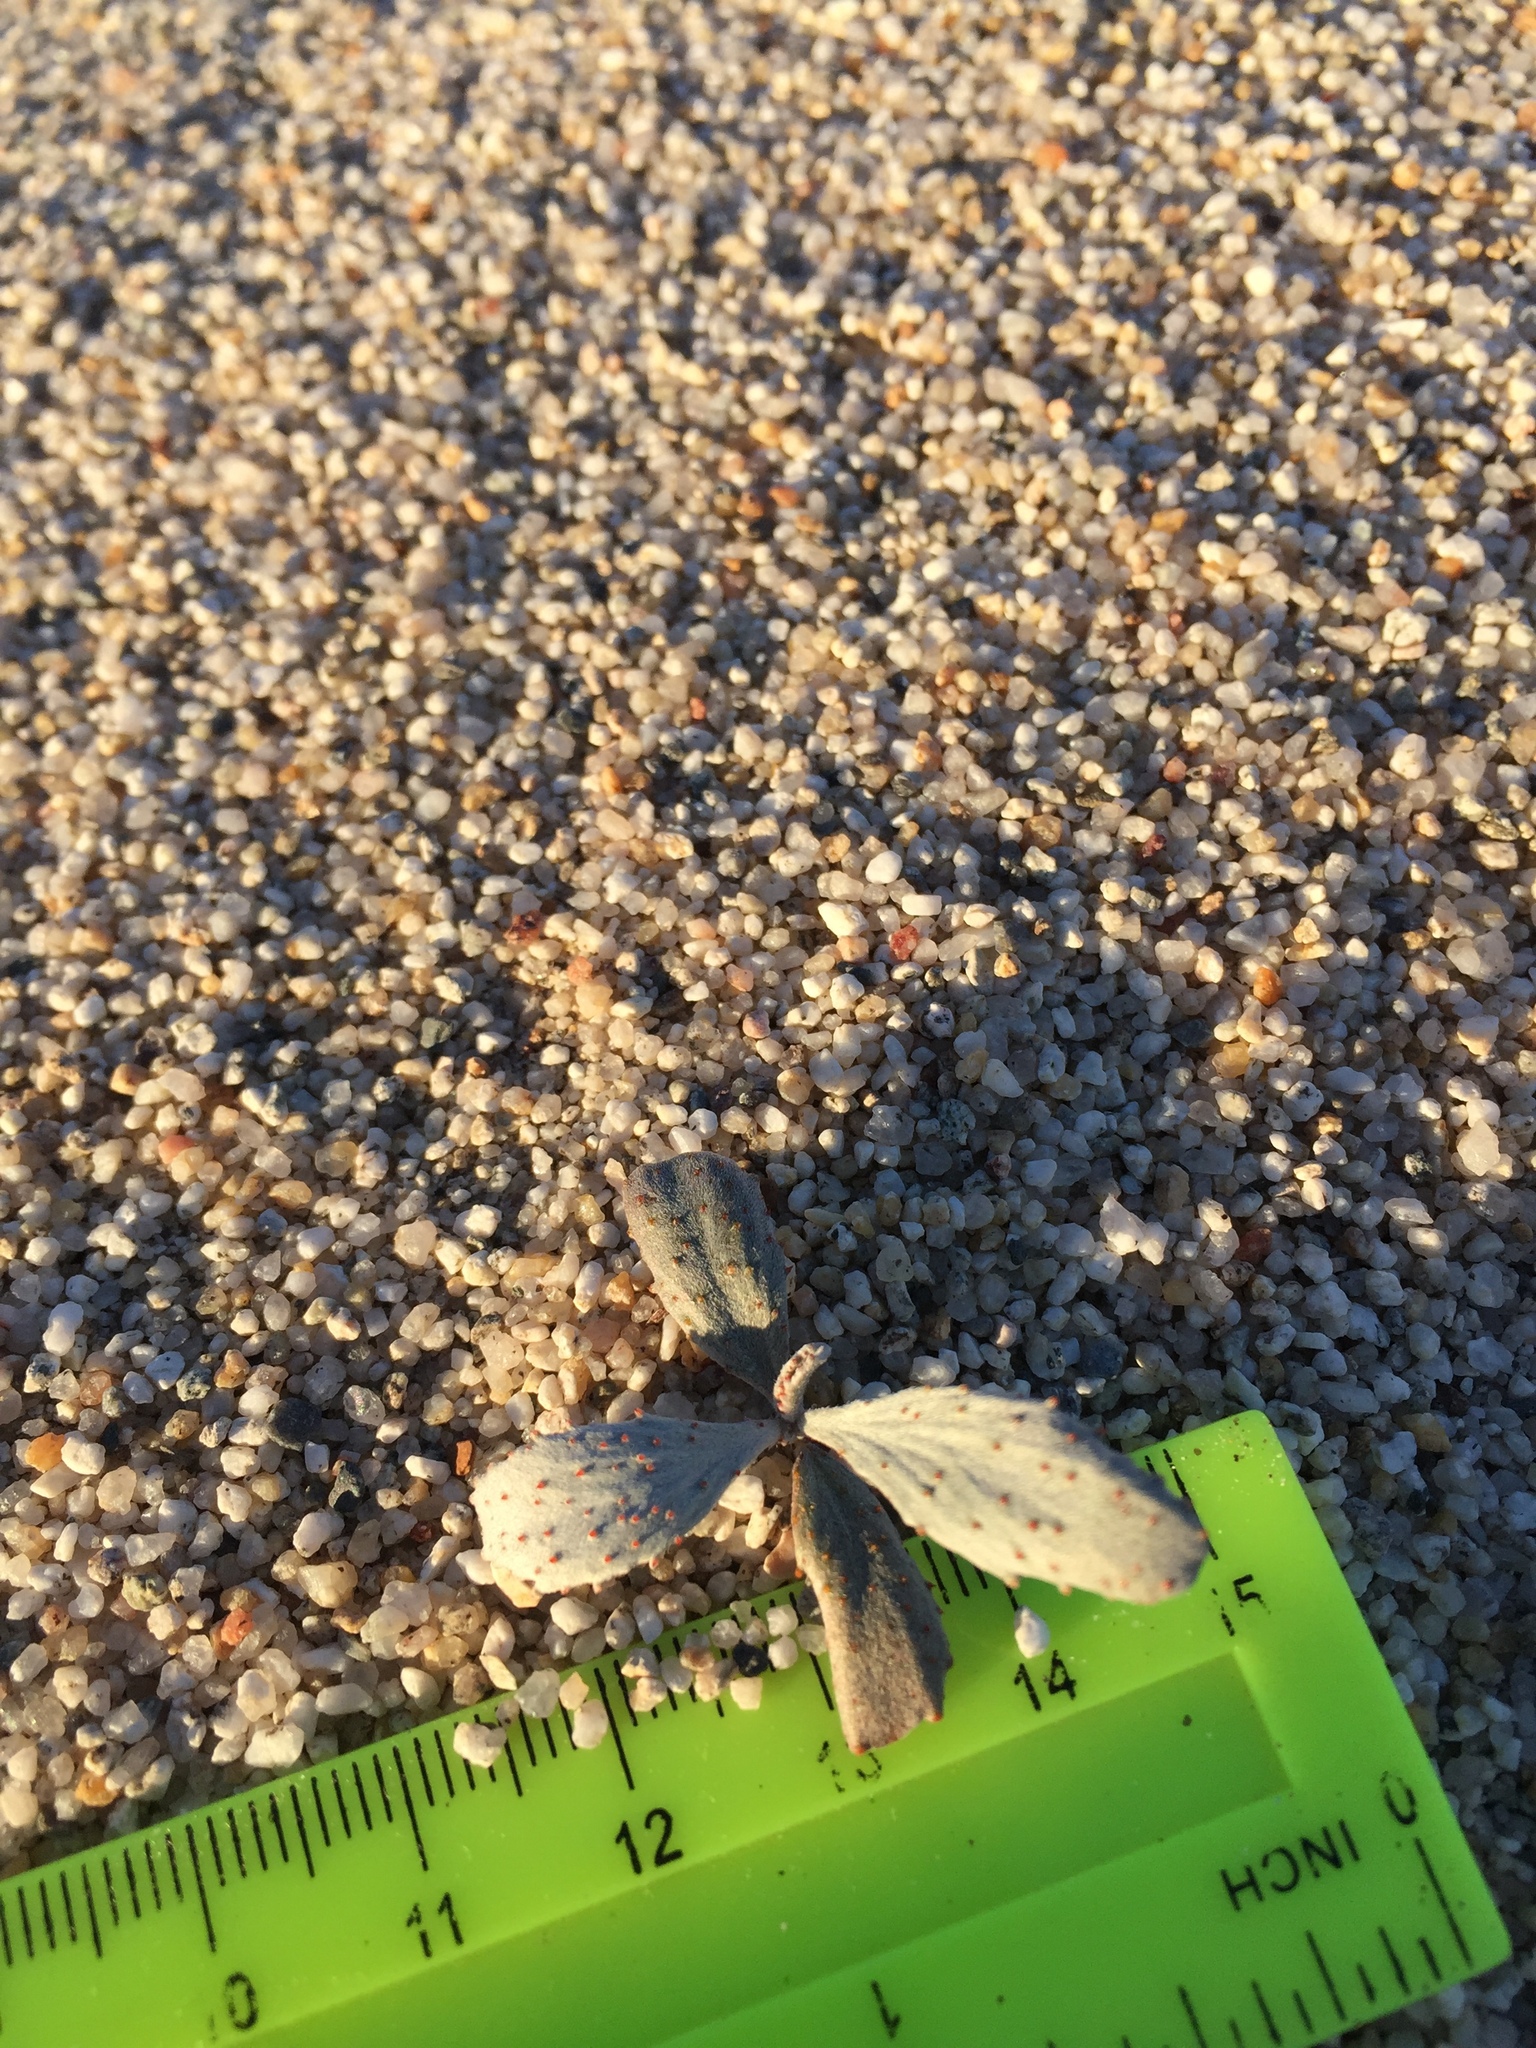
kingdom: Plantae
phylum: Tracheophyta
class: Magnoliopsida
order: Fabales
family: Fabaceae
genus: Psorothamnus
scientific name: Psorothamnus spinosus
